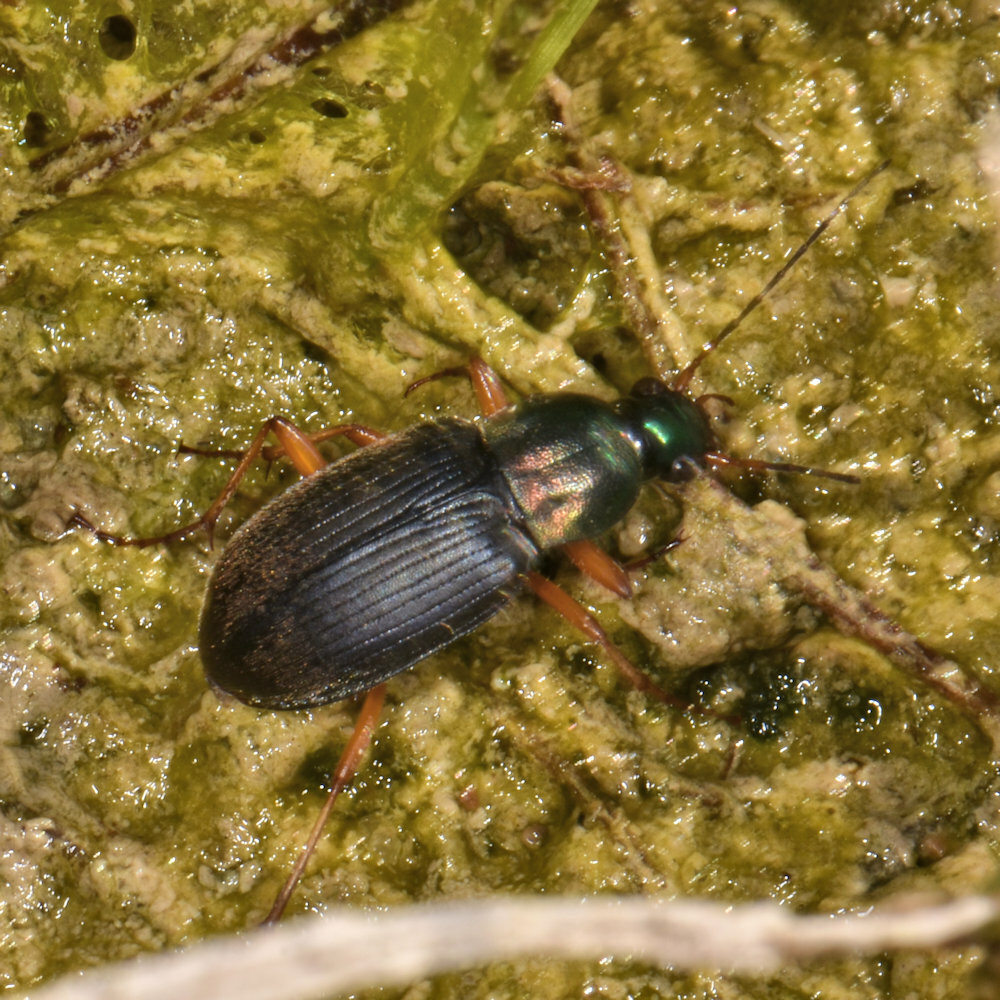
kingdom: Animalia
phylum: Arthropoda
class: Insecta
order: Coleoptera
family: Carabidae
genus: Chlaenius
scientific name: Chlaenius tricolor
